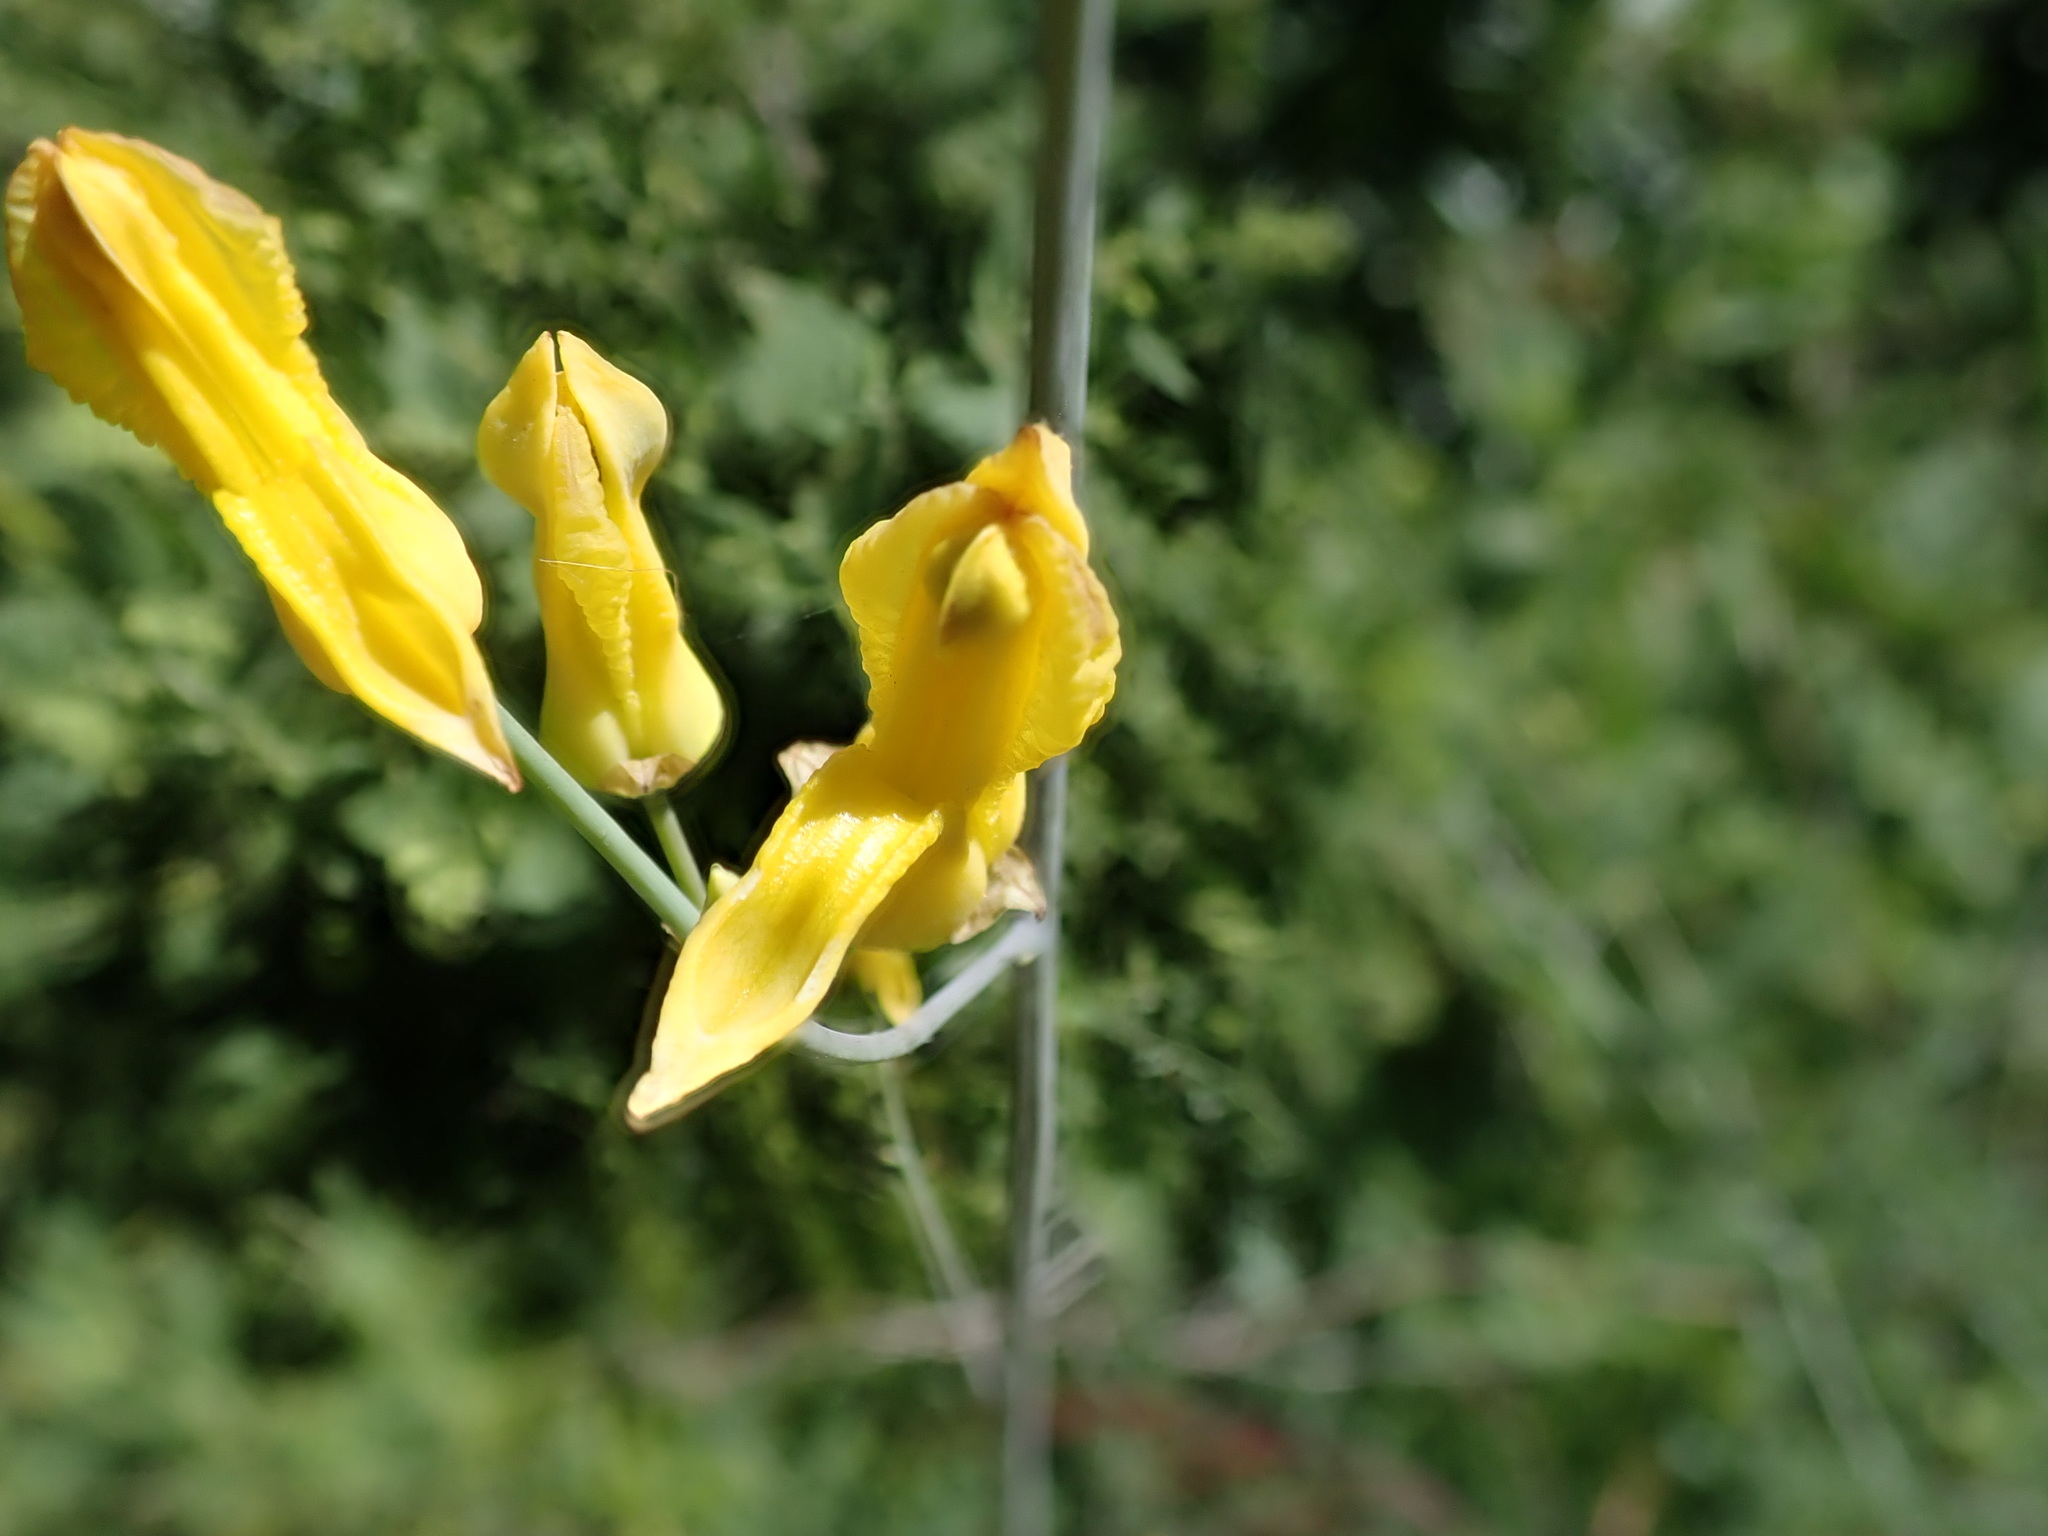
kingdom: Plantae
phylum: Tracheophyta
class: Magnoliopsida
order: Ranunculales
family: Papaveraceae
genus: Ehrendorferia
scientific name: Ehrendorferia chrysantha
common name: Golden eardrops
